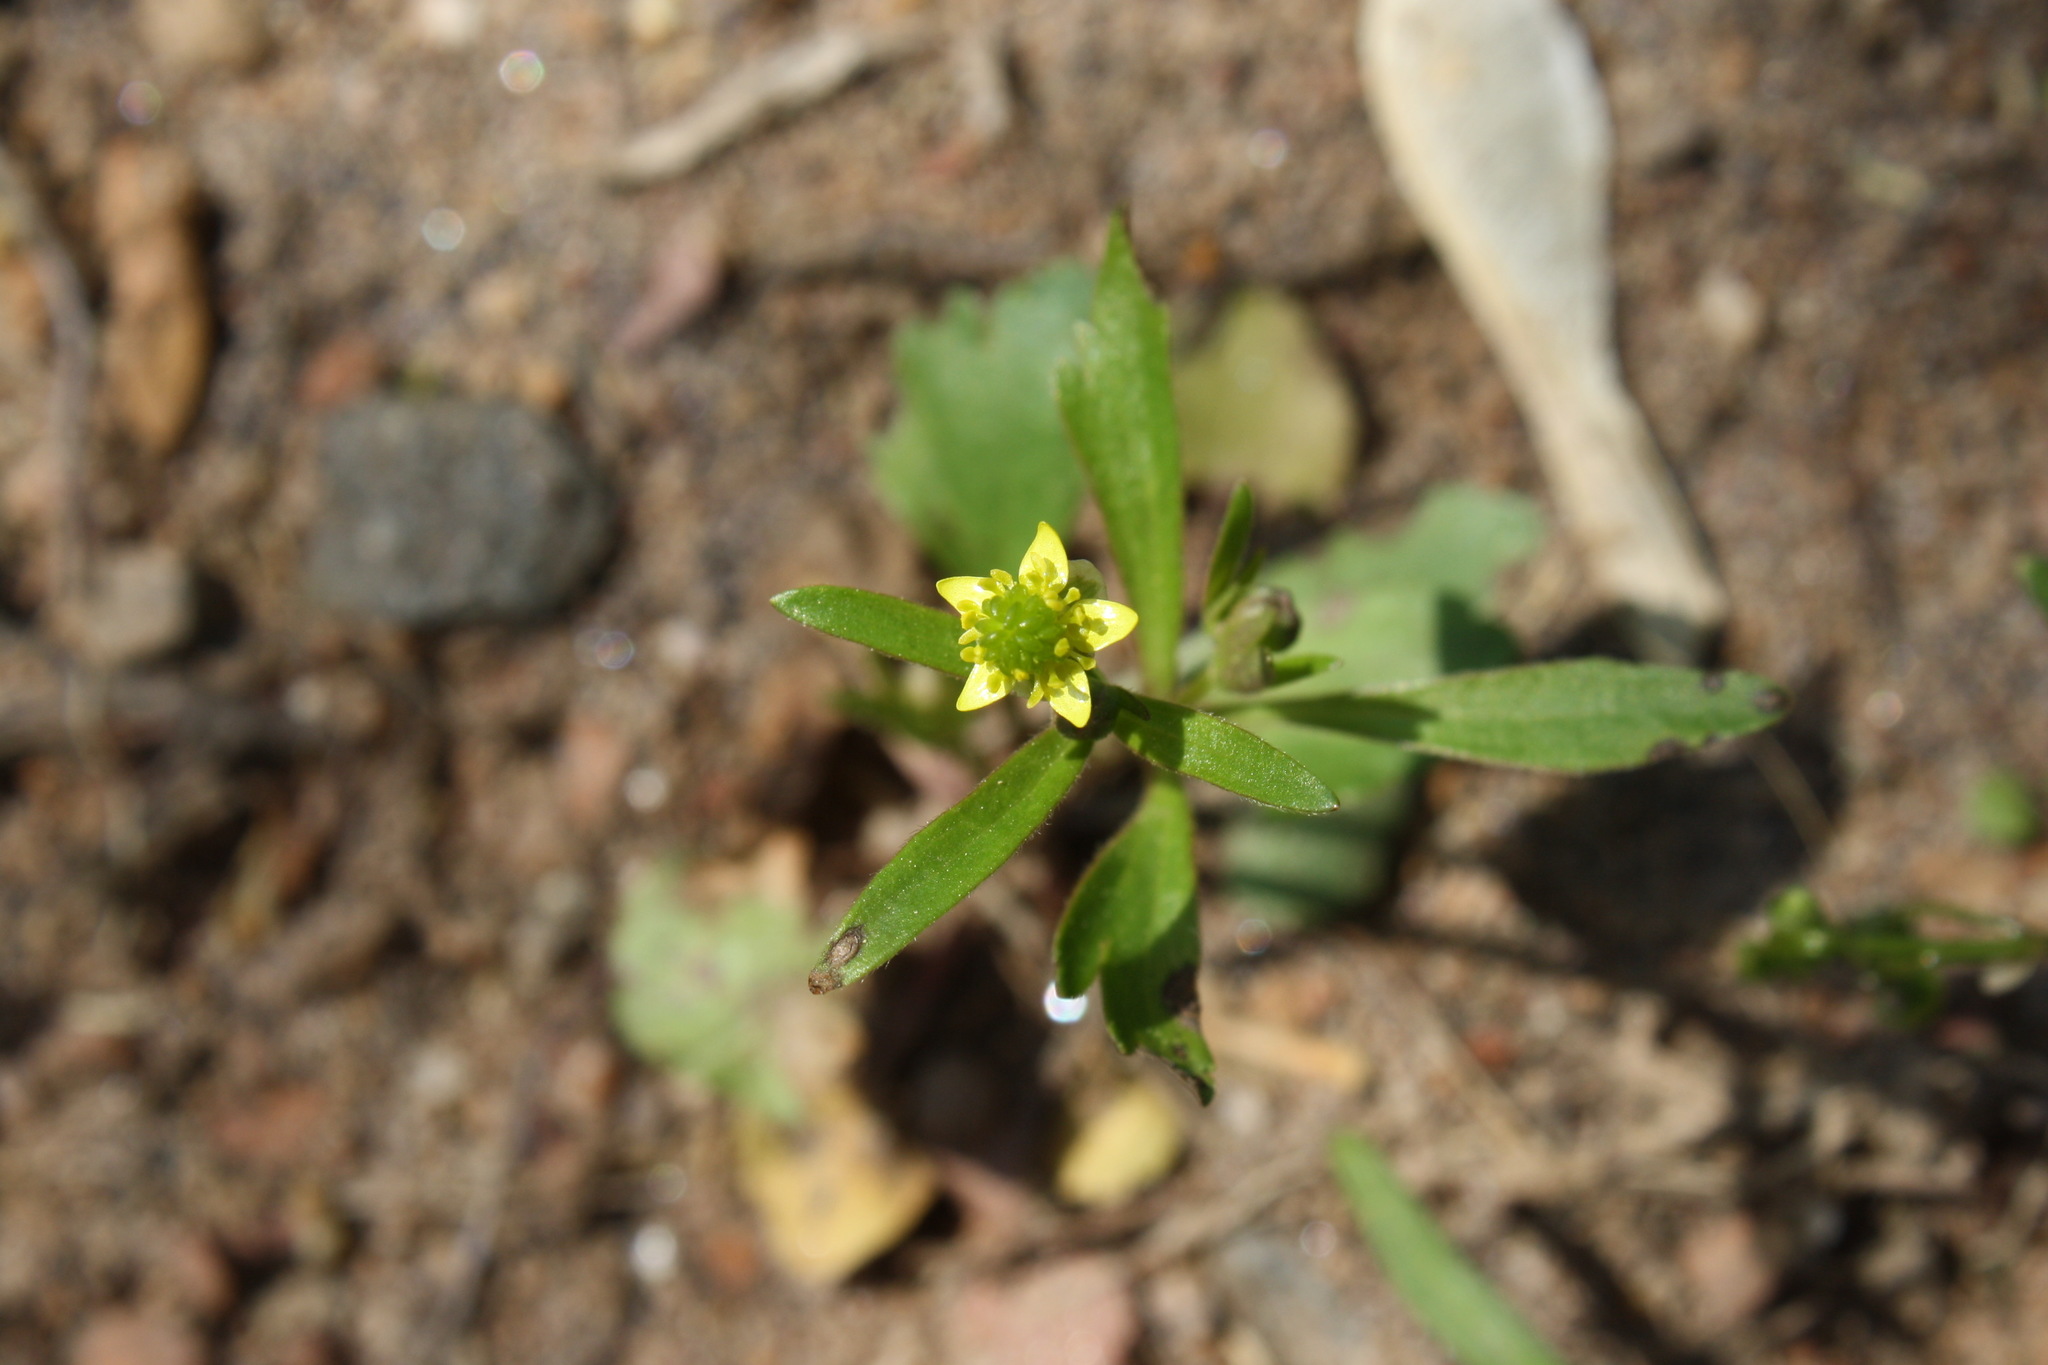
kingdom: Plantae
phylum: Tracheophyta
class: Magnoliopsida
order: Ranunculales
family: Ranunculaceae
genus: Ranunculus
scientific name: Ranunculus abortivus
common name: Early wood buttercup
